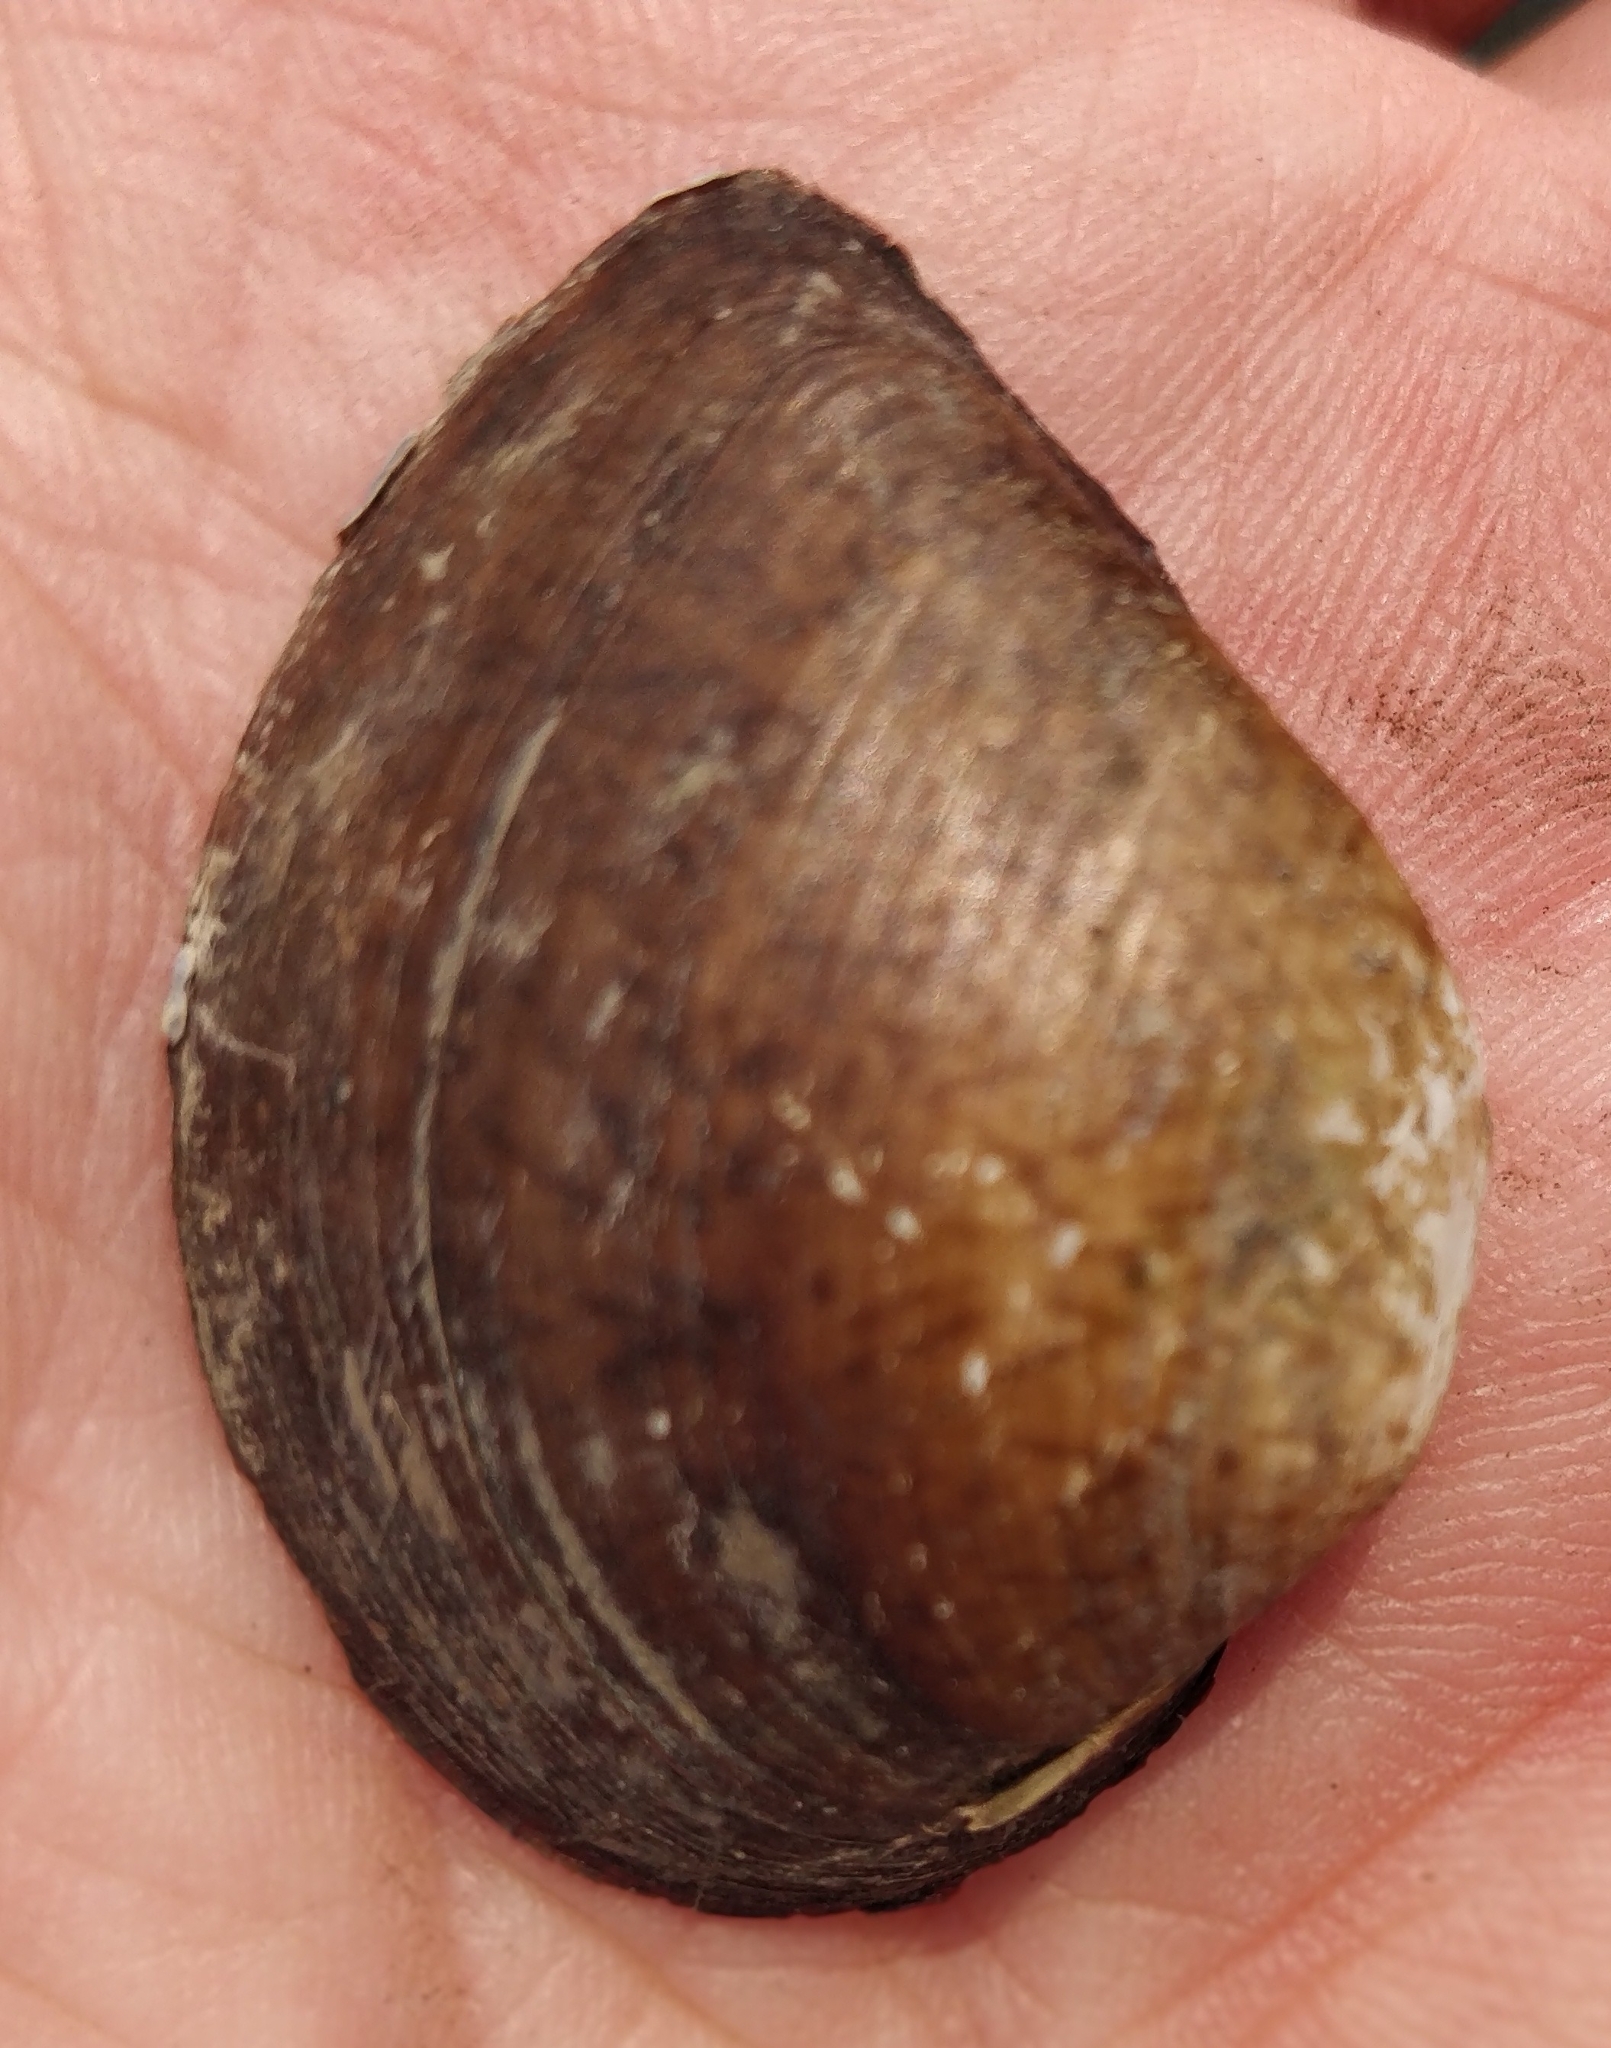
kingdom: Animalia
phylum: Mollusca
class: Bivalvia
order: Unionida
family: Unionidae
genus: Truncilla
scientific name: Truncilla truncata
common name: Deertoe
